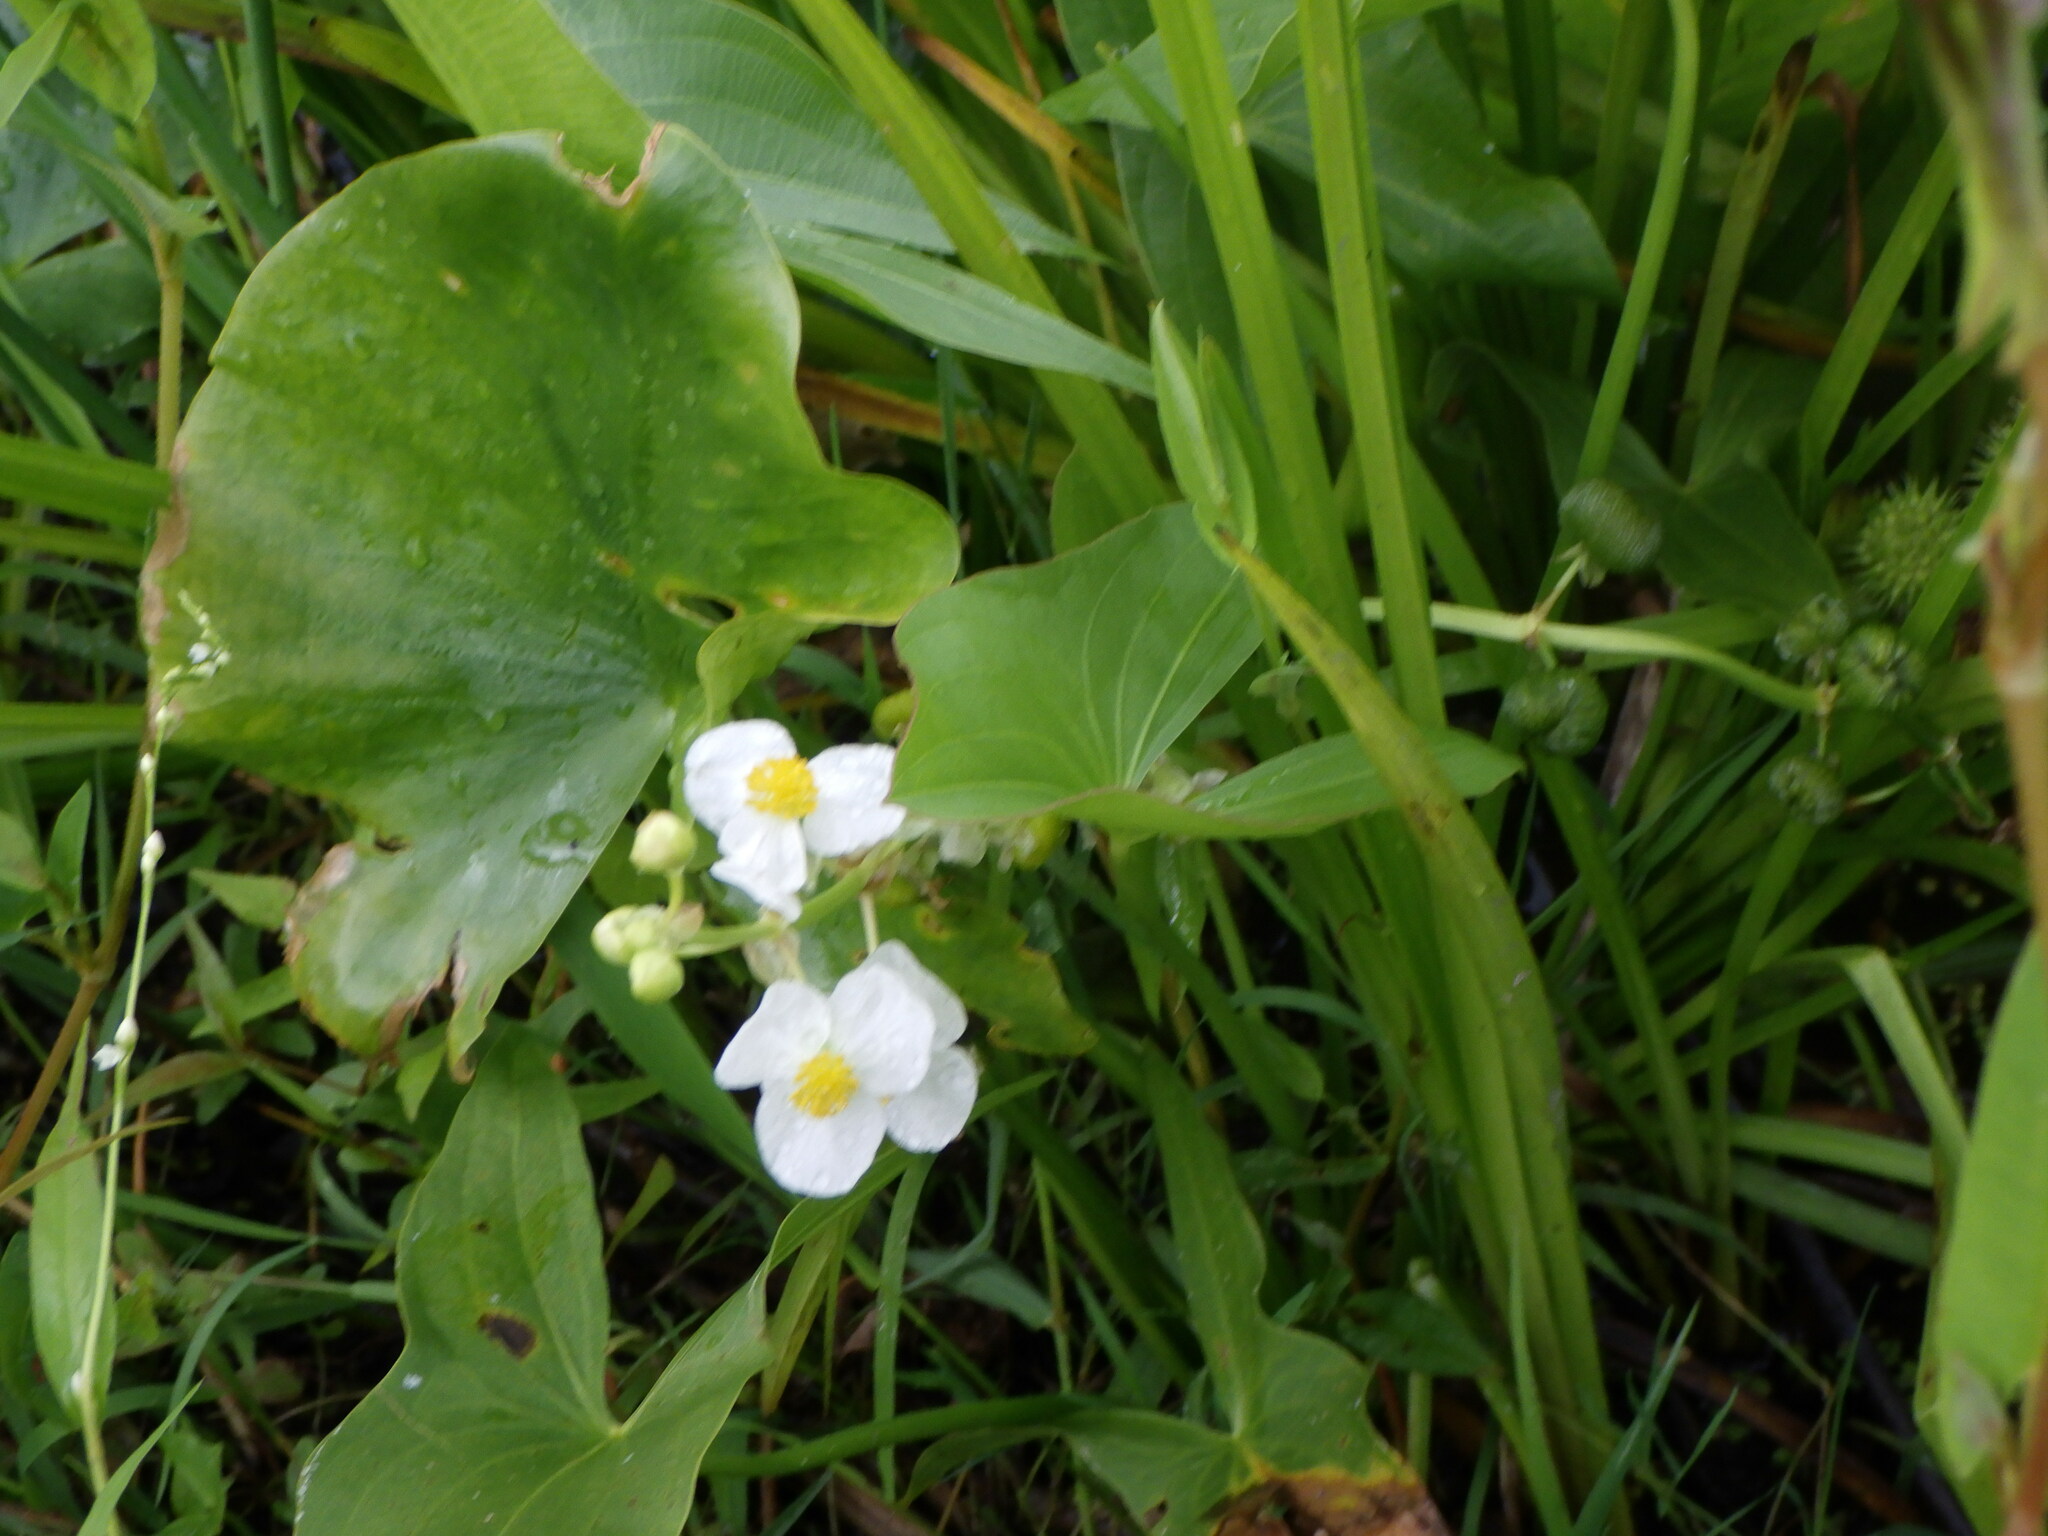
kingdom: Plantae
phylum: Tracheophyta
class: Liliopsida
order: Alismatales
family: Alismataceae
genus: Sagittaria
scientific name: Sagittaria latifolia
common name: Duck-potato
